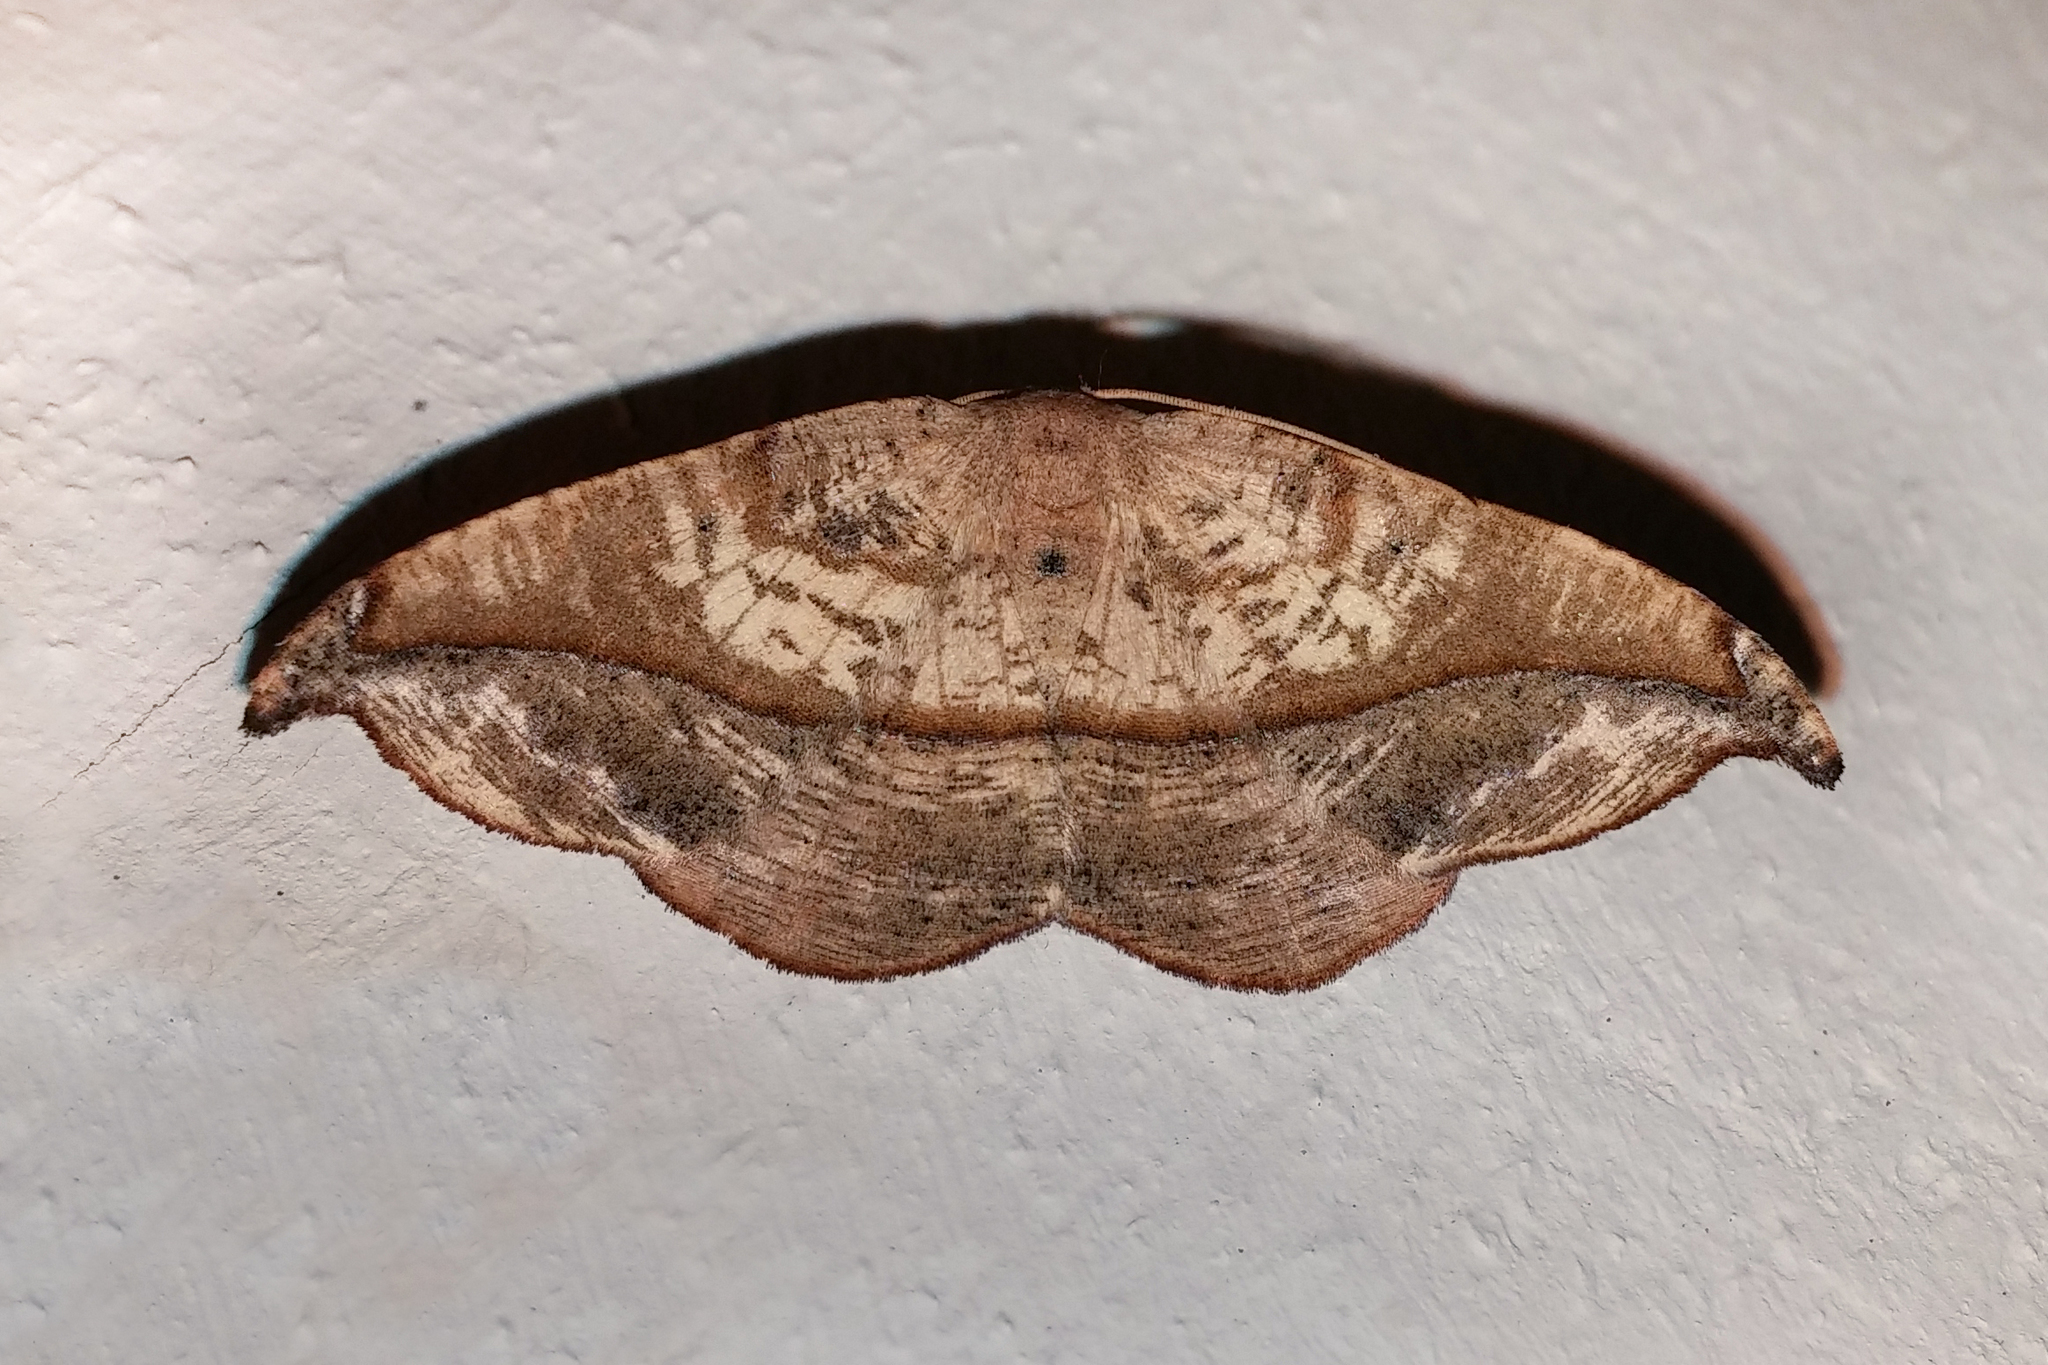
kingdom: Animalia
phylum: Arthropoda
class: Insecta
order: Lepidoptera
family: Geometridae
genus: Patalene
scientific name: Patalene olyzonaria
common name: Juniper geometer moth
